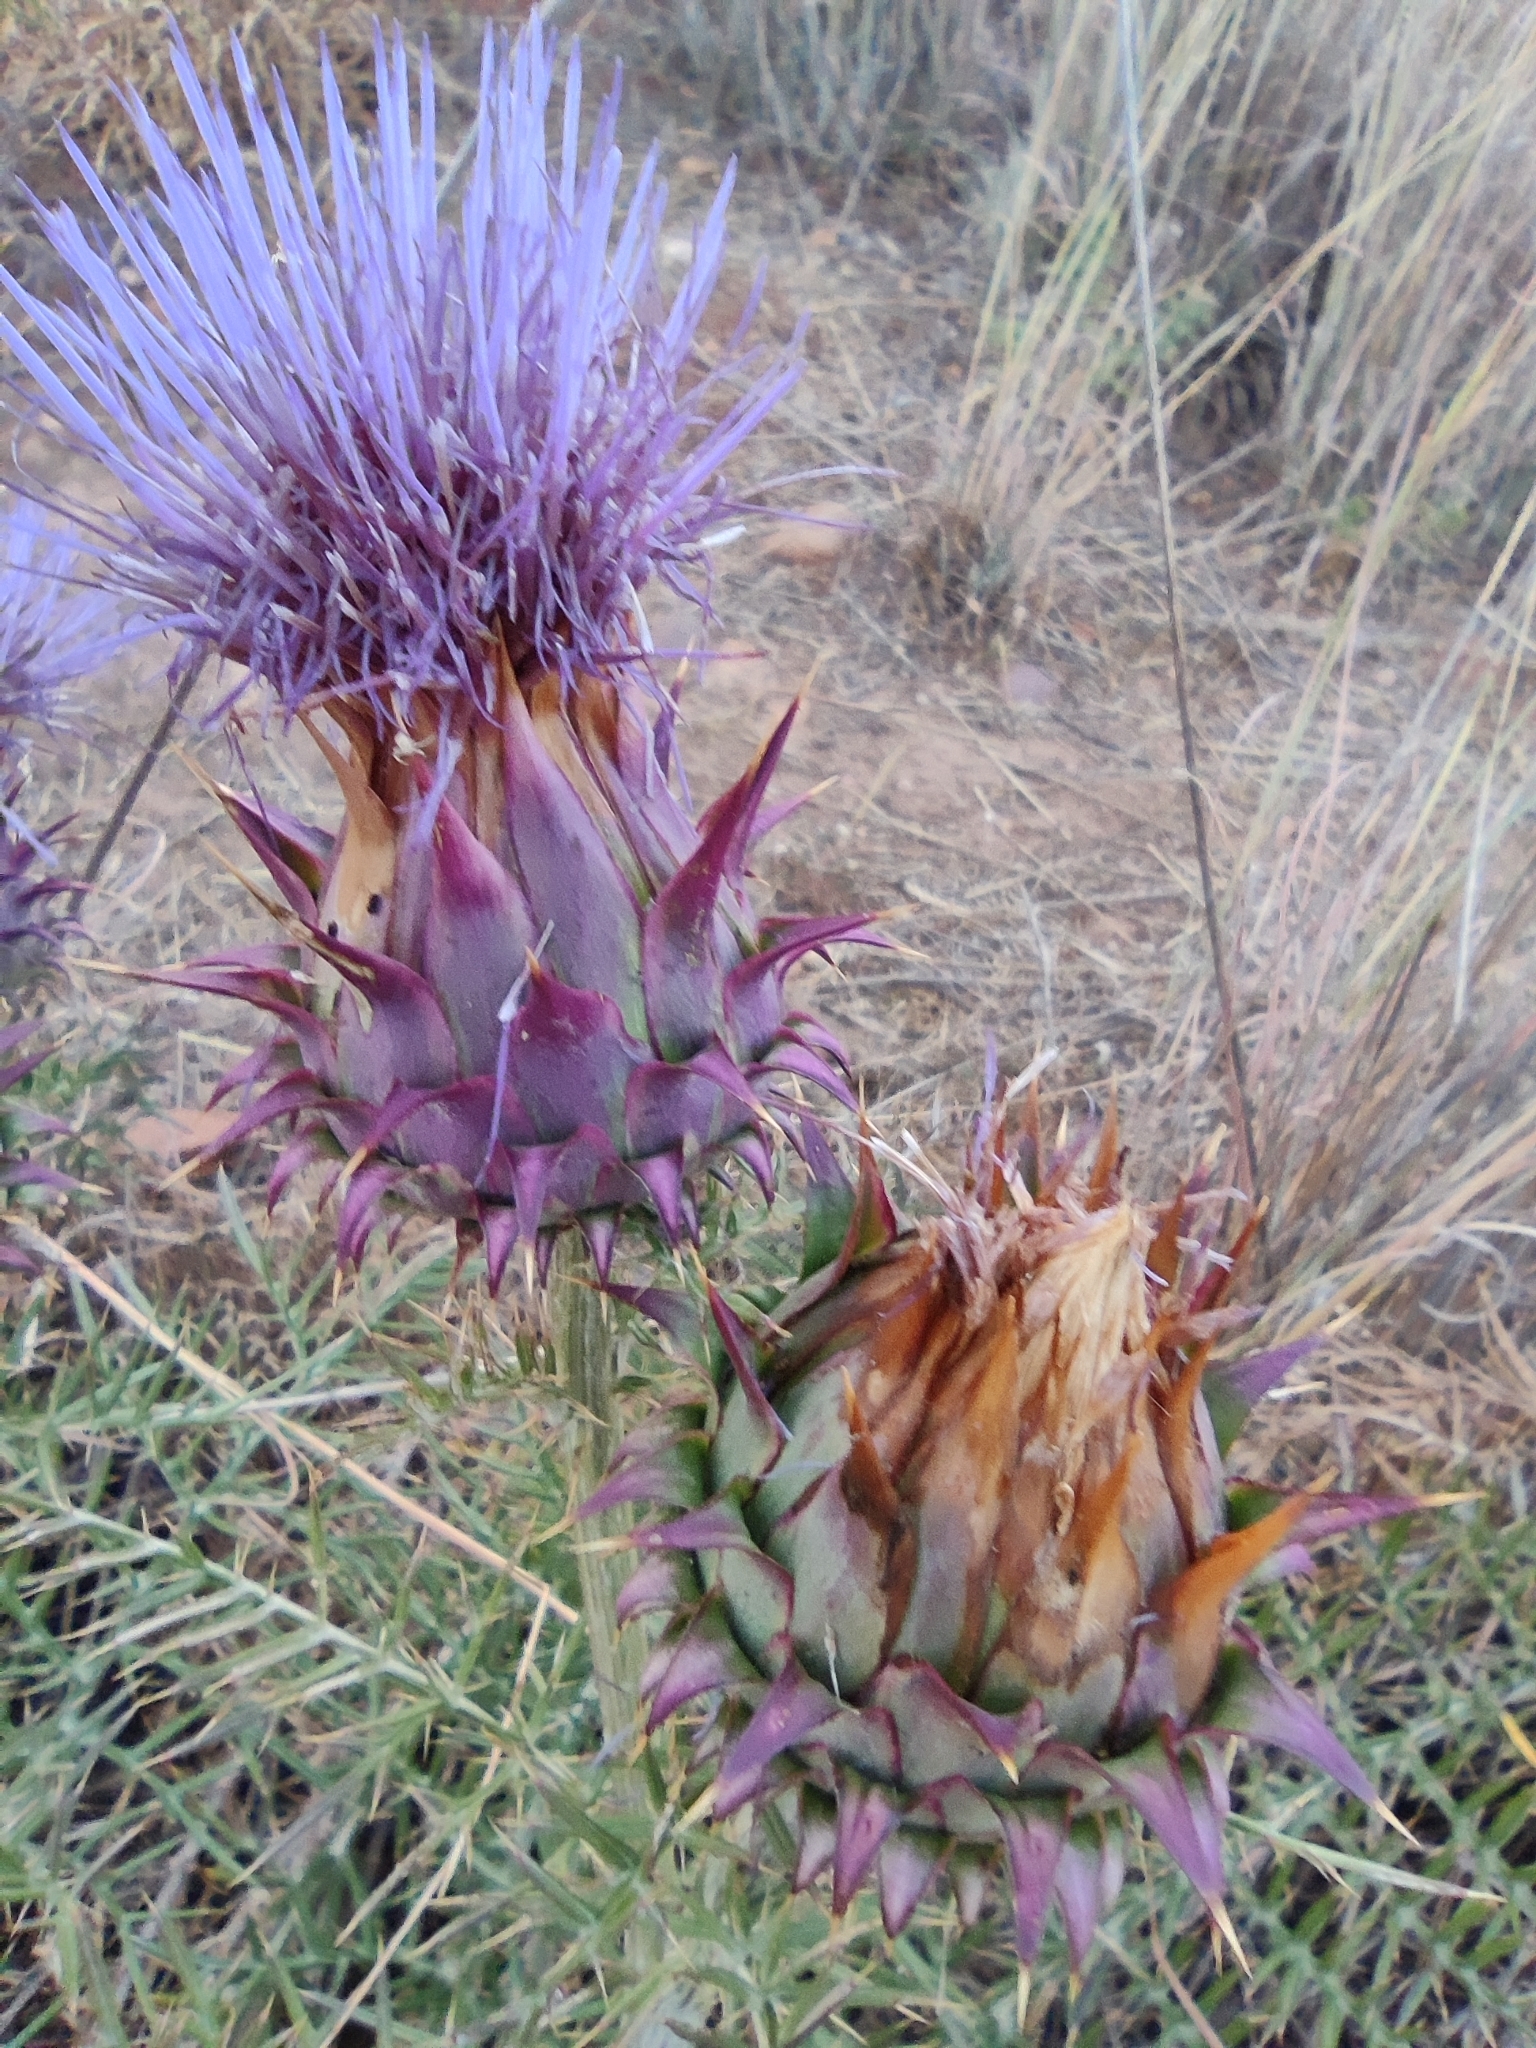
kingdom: Plantae
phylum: Tracheophyta
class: Magnoliopsida
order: Asterales
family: Asteraceae
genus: Cynara
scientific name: Cynara humilis
